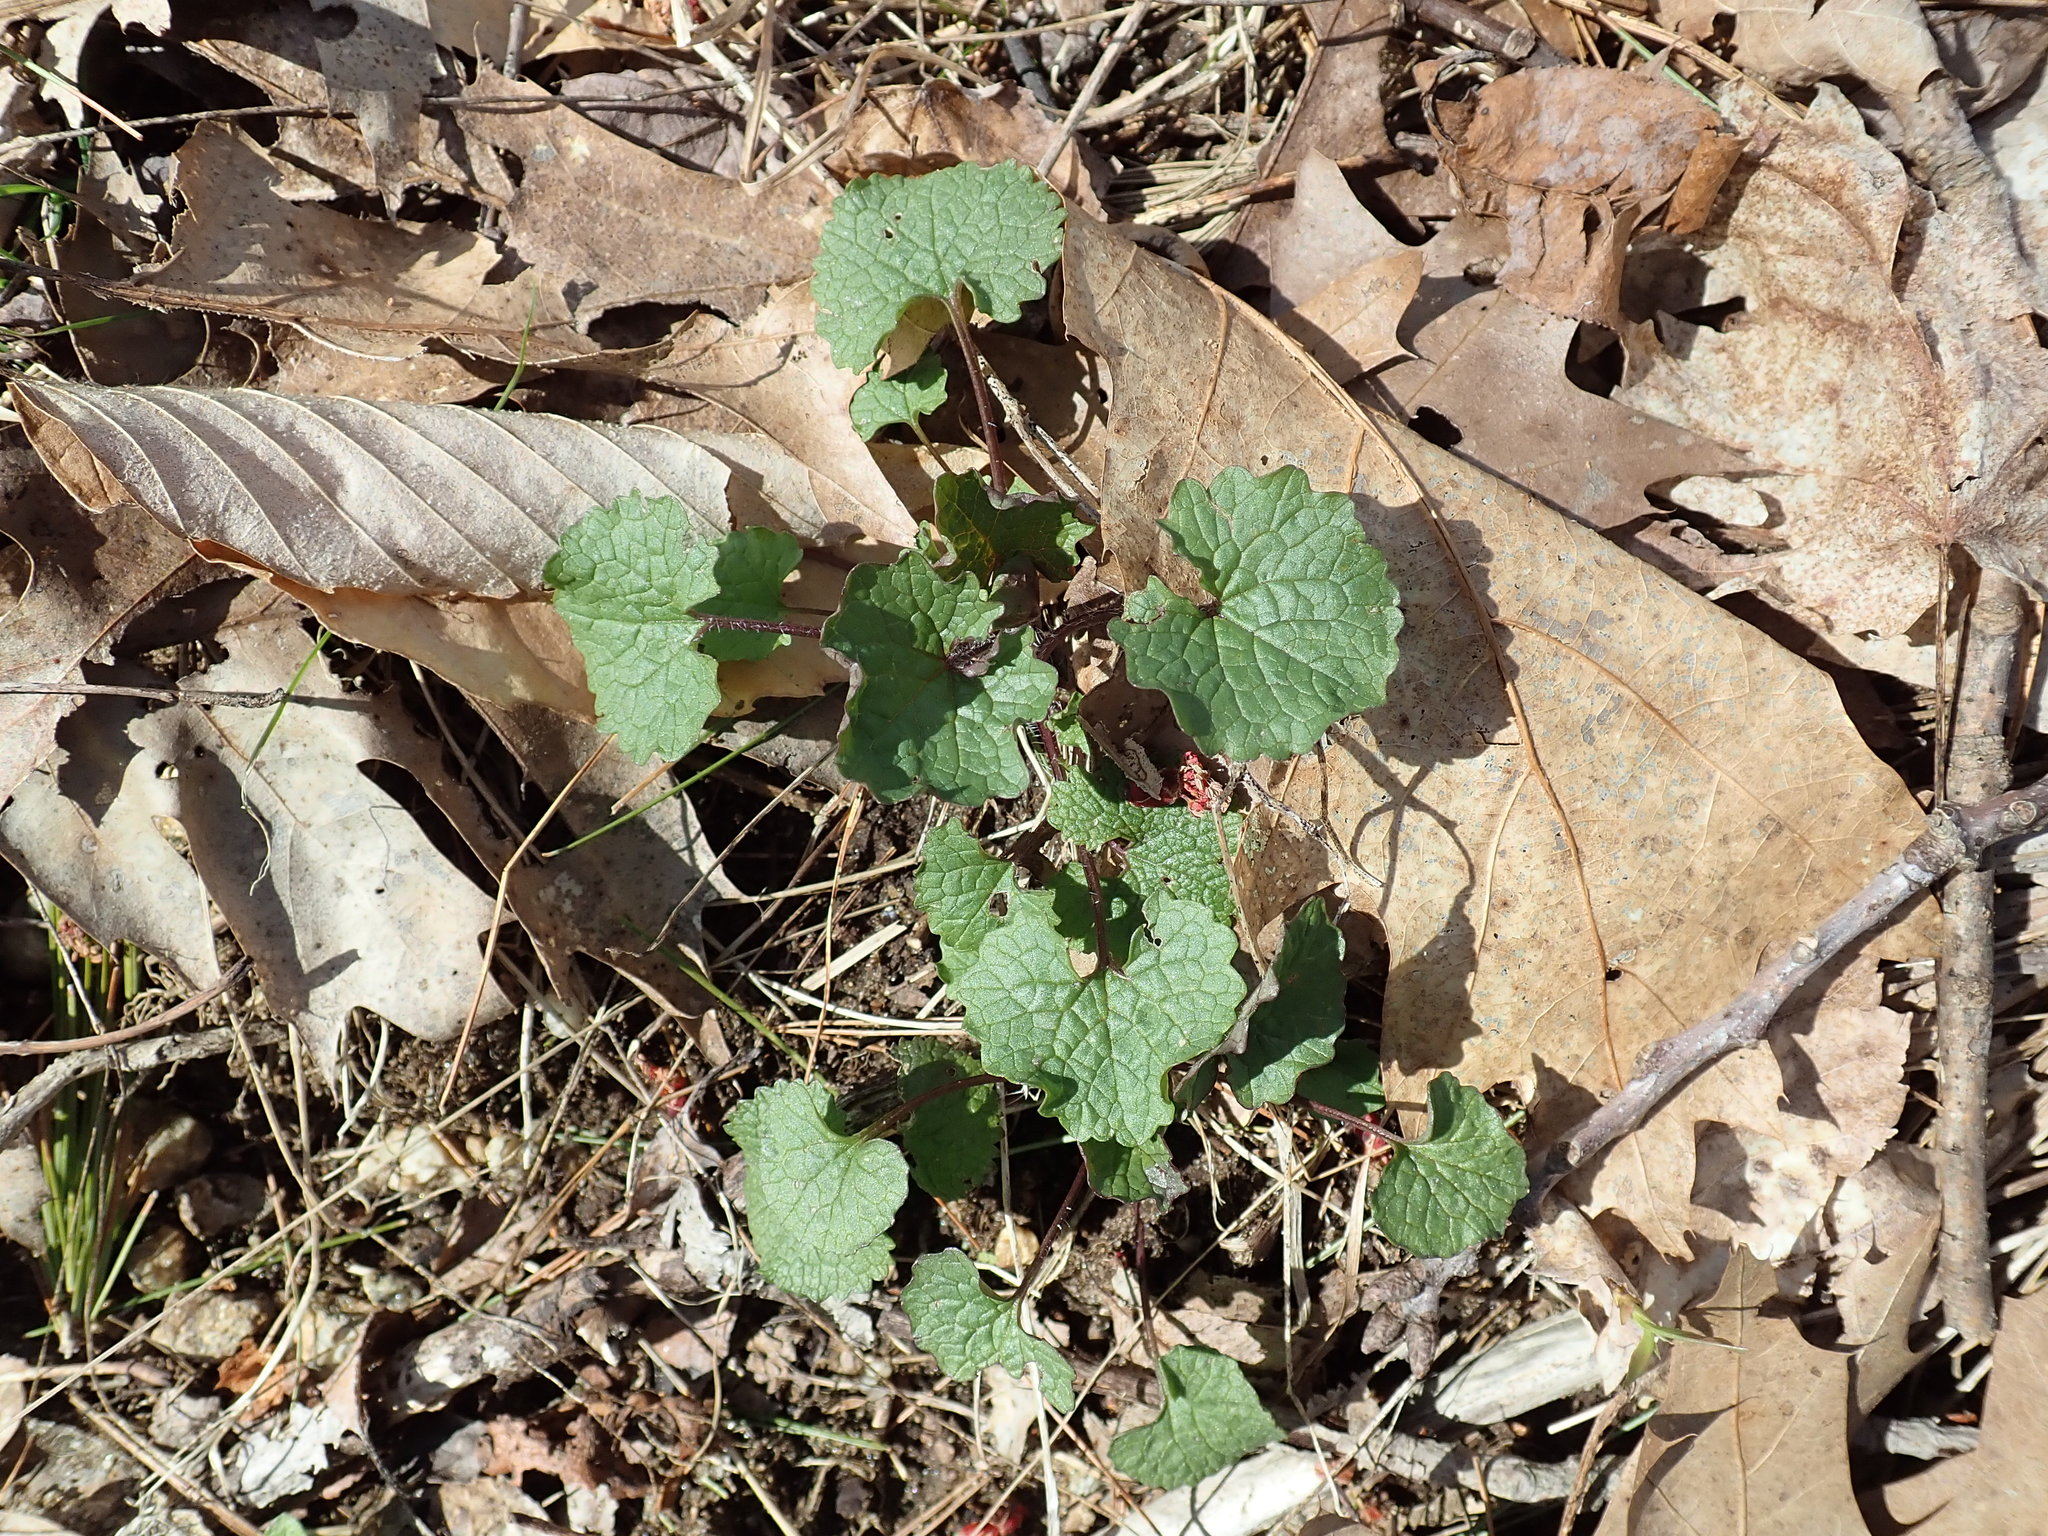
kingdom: Plantae
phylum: Tracheophyta
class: Magnoliopsida
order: Brassicales
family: Brassicaceae
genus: Alliaria
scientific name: Alliaria petiolata
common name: Garlic mustard
